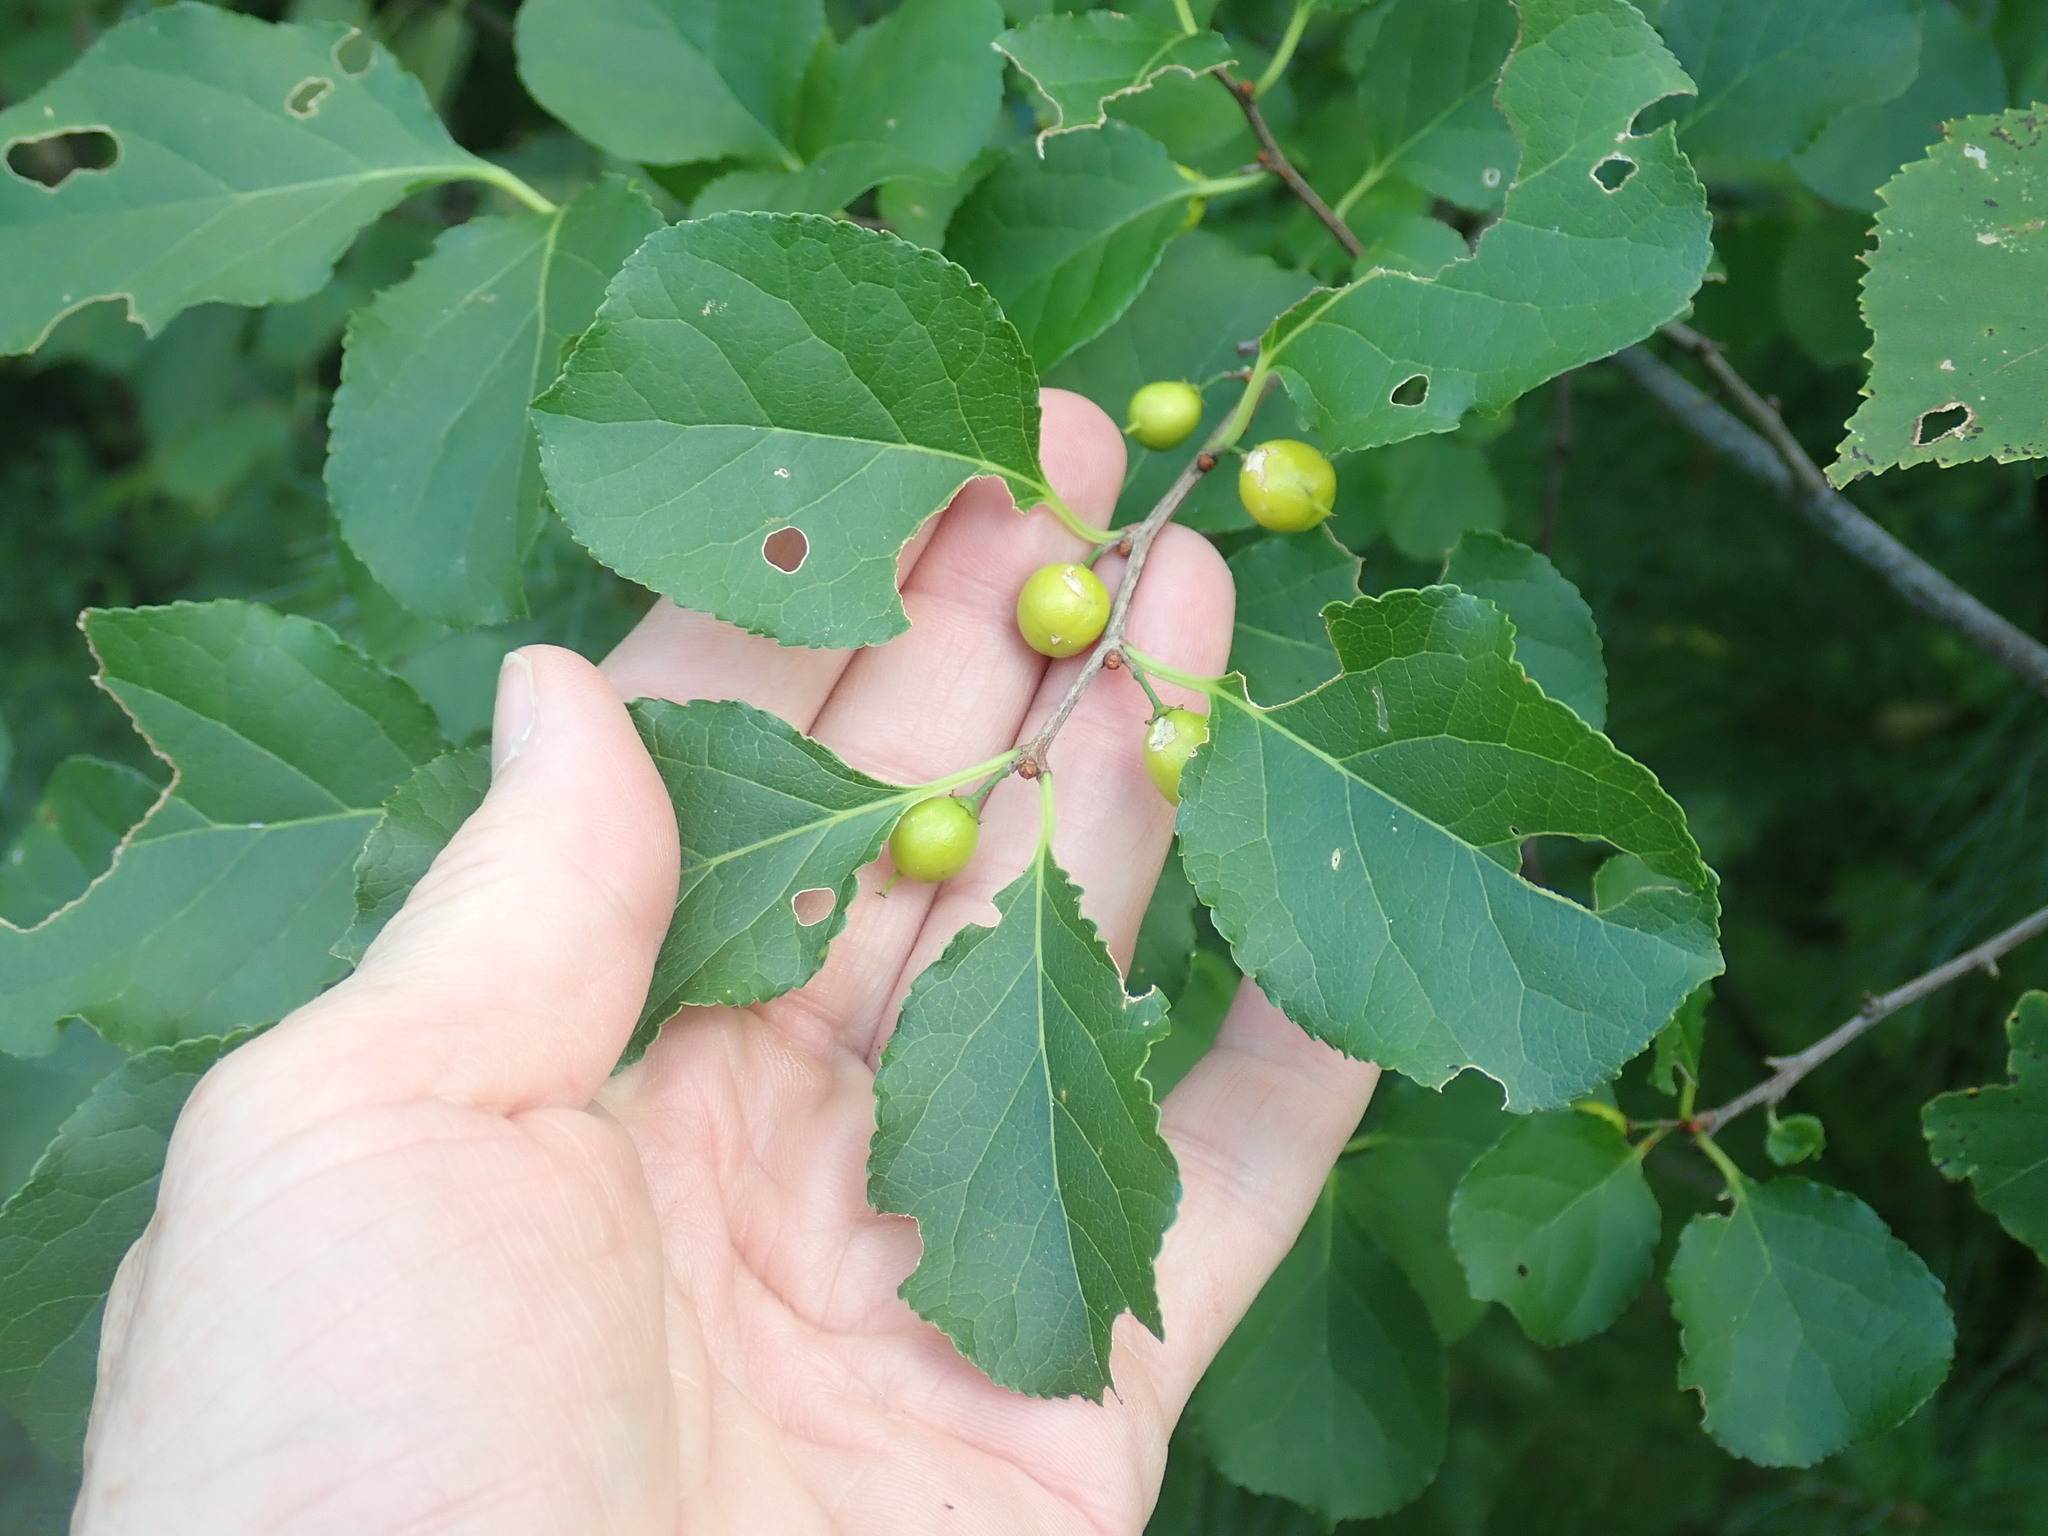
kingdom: Plantae
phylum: Tracheophyta
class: Magnoliopsida
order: Celastrales
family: Celastraceae
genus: Celastrus
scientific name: Celastrus orbiculatus
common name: Oriental bittersweet
